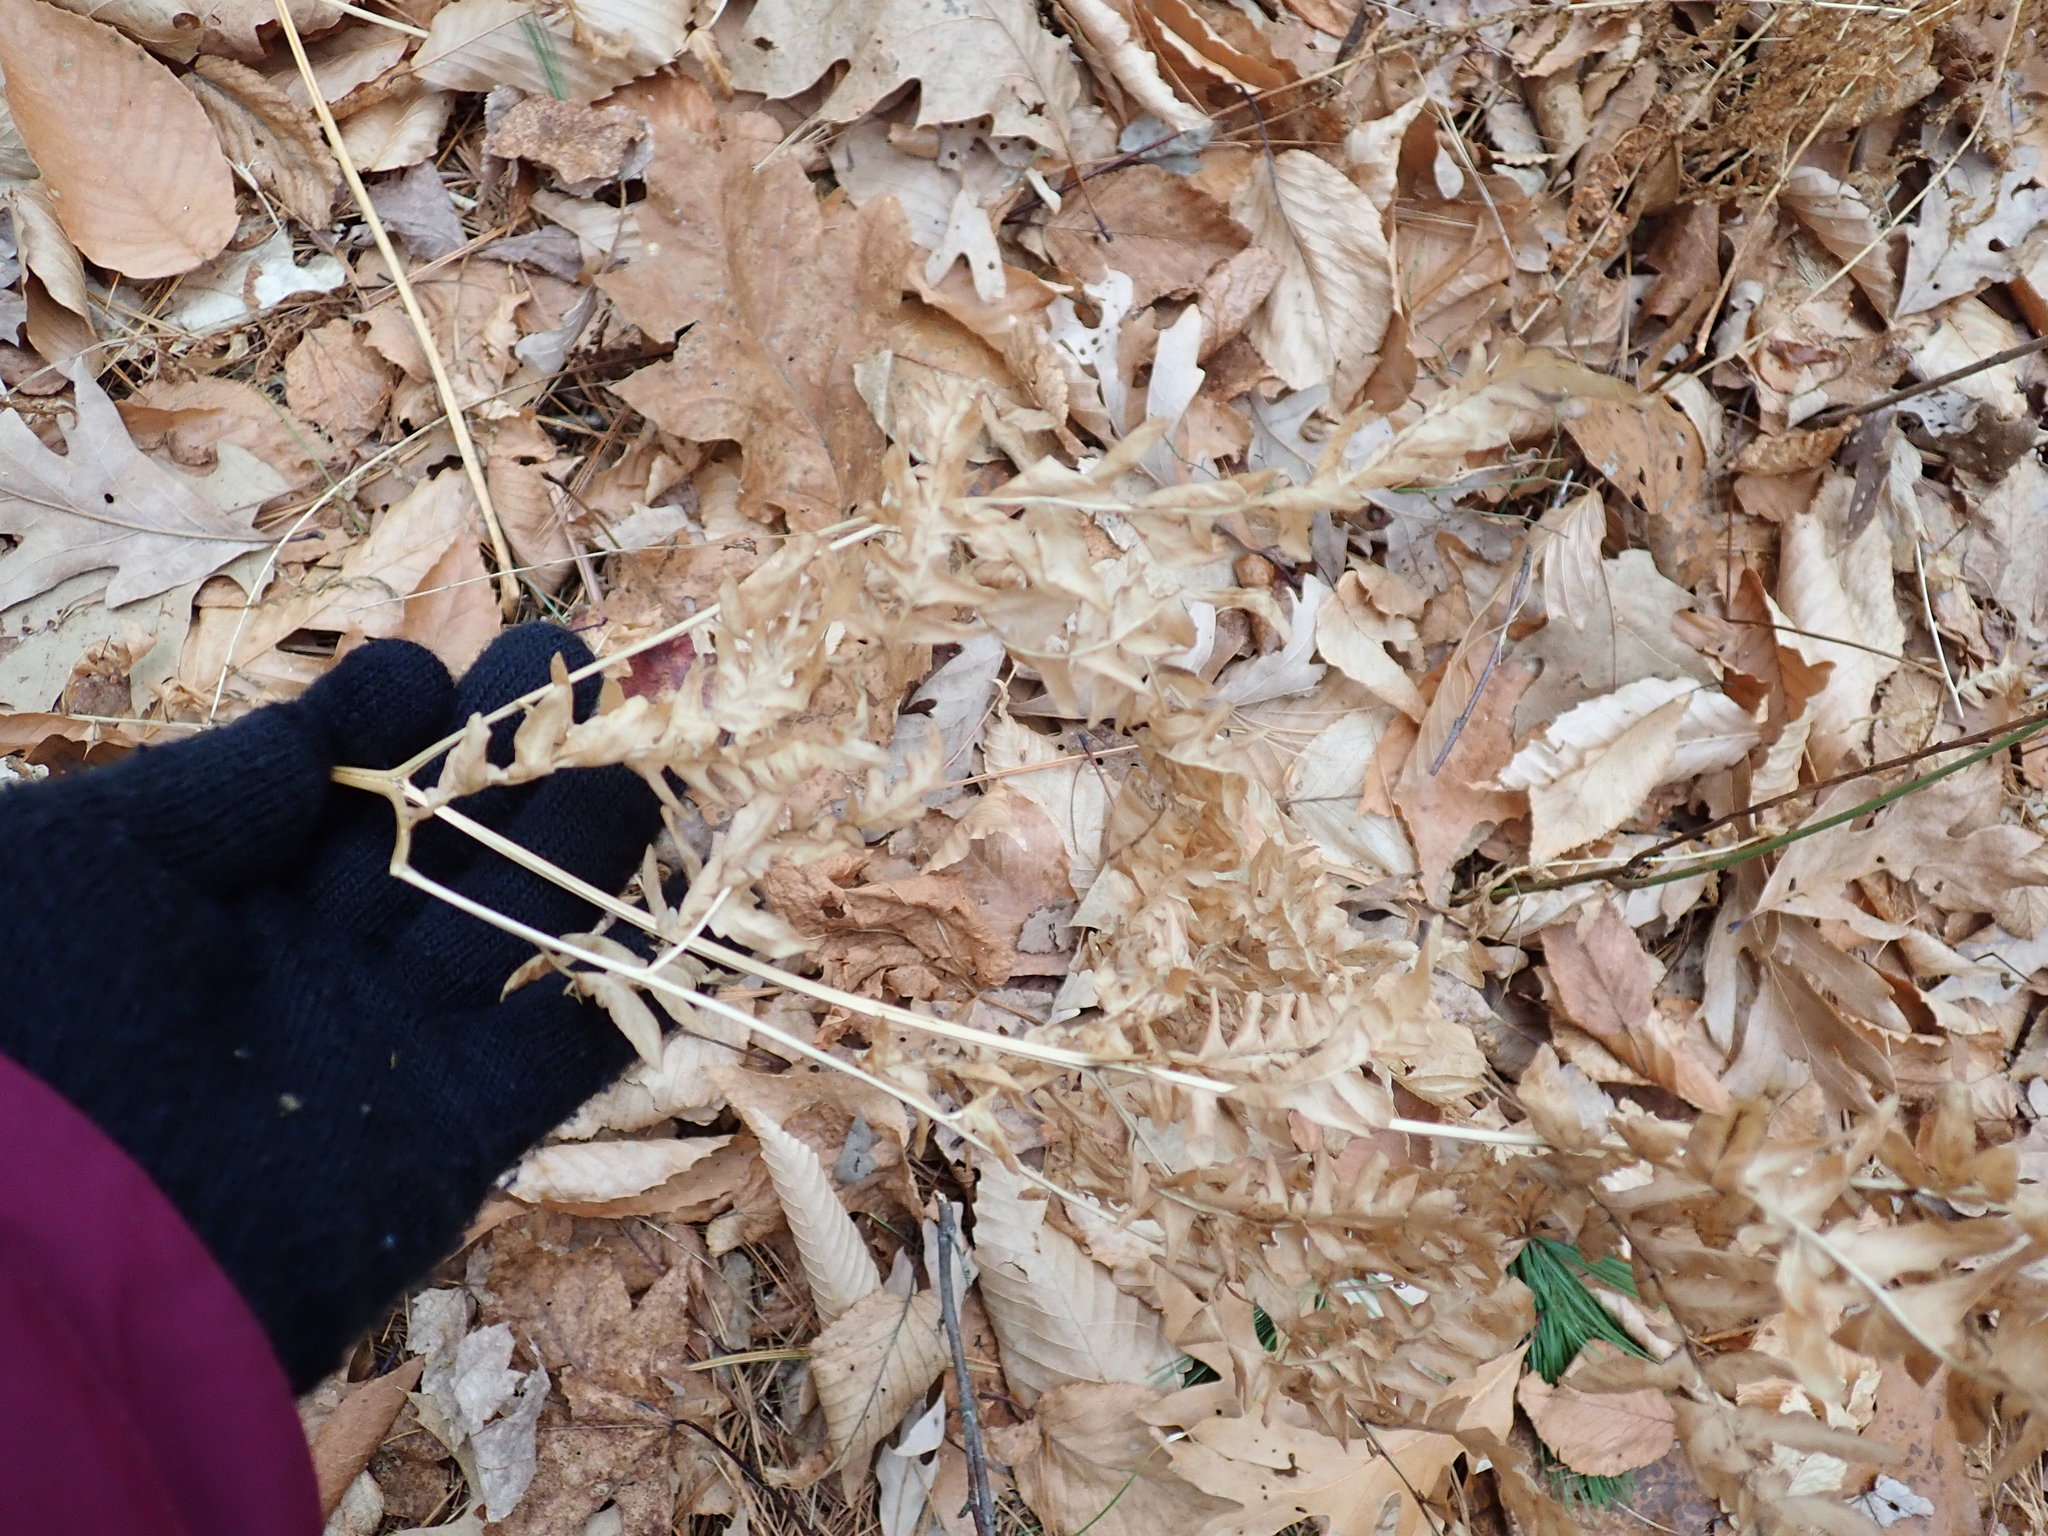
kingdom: Plantae
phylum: Tracheophyta
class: Polypodiopsida
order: Polypodiales
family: Dennstaedtiaceae
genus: Pteridium
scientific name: Pteridium aquilinum
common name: Bracken
